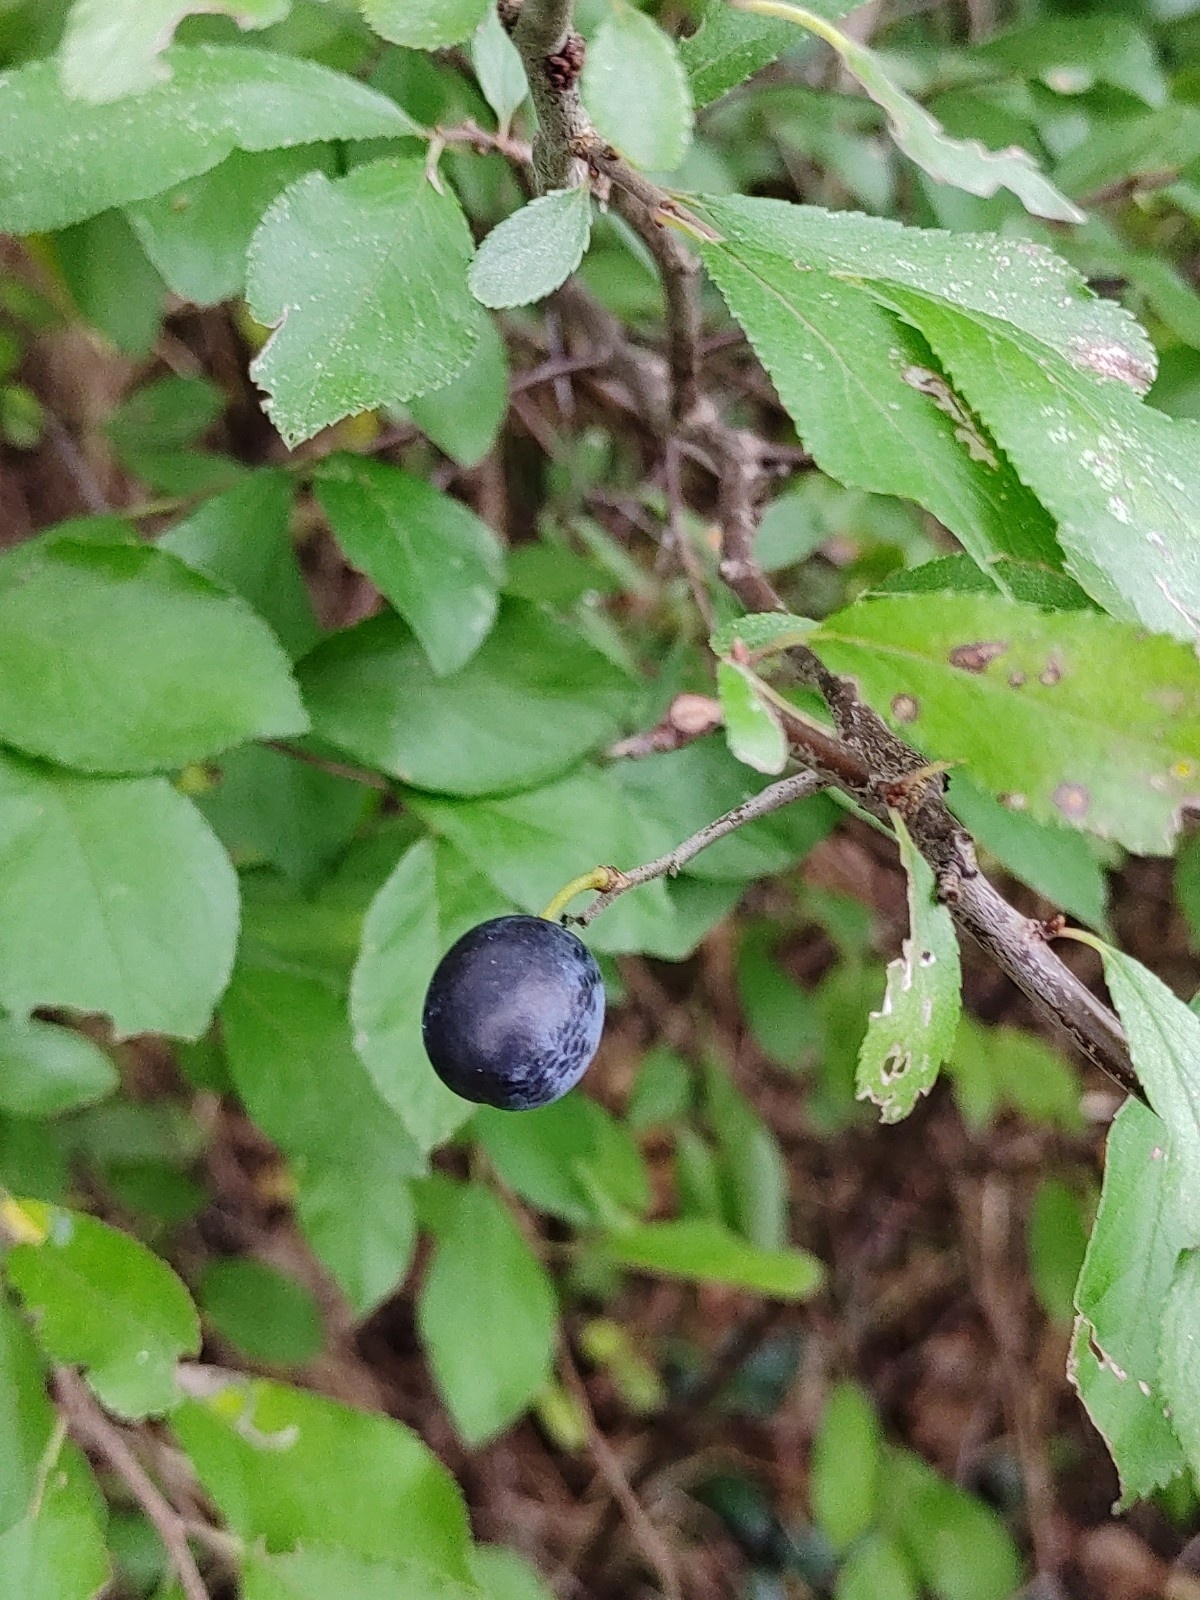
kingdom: Plantae
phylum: Tracheophyta
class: Magnoliopsida
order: Rosales
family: Rosaceae
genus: Prunus
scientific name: Prunus spinosa
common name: Blackthorn
